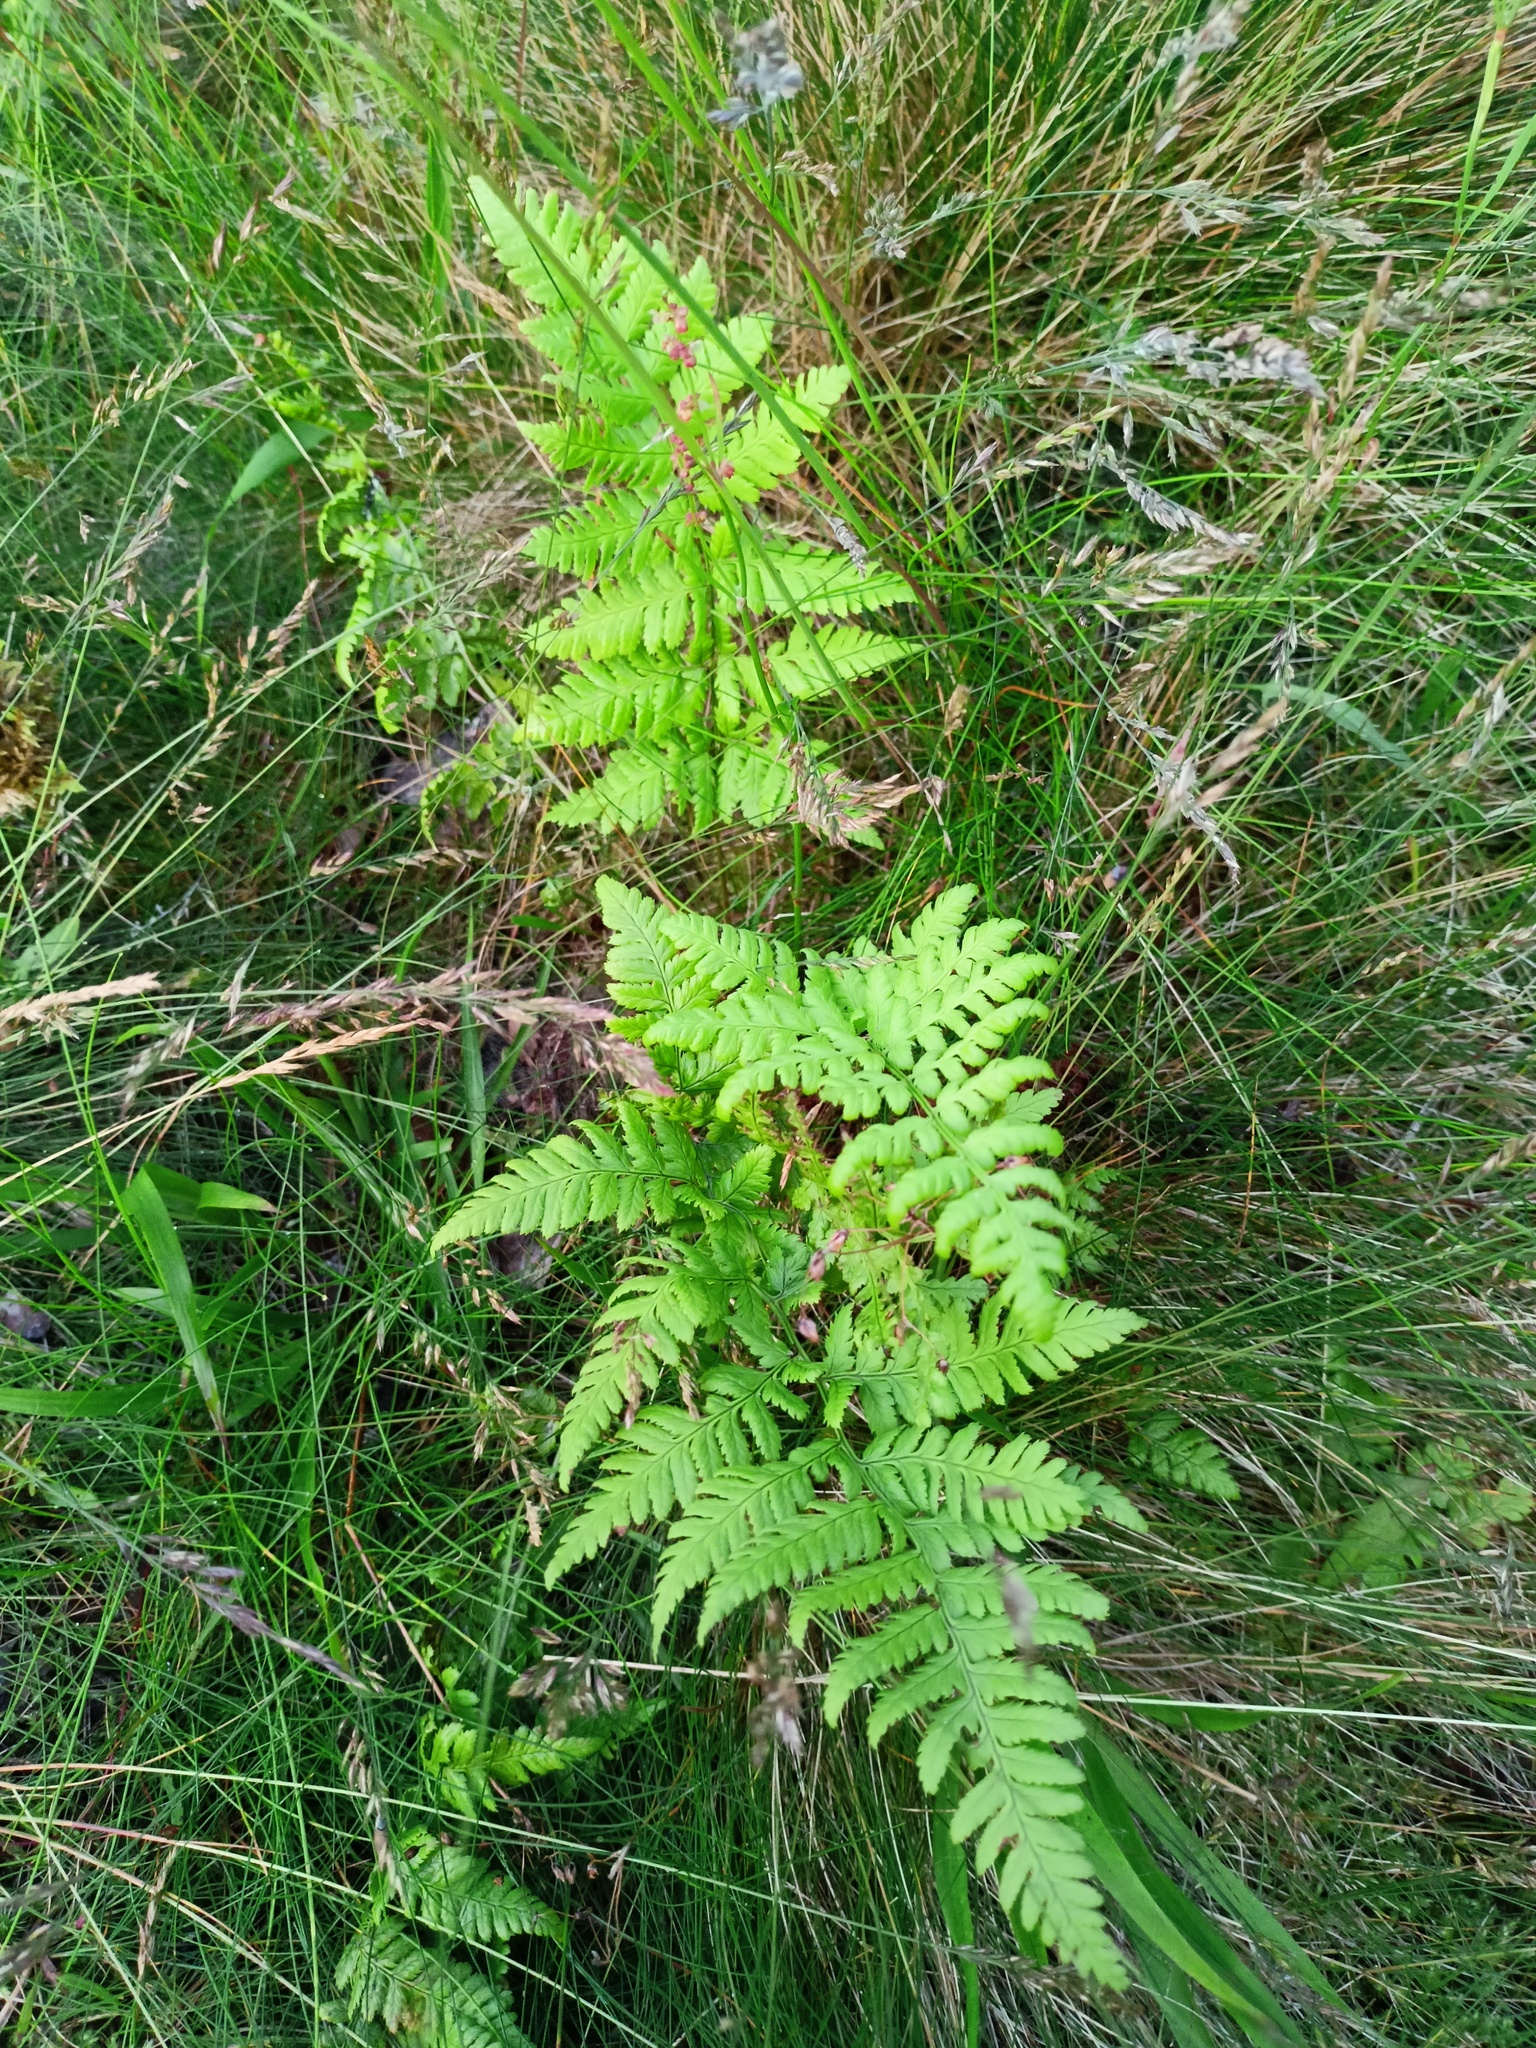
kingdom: Plantae
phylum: Tracheophyta
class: Polypodiopsida
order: Polypodiales
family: Dryopteridaceae
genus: Dryopteris
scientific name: Dryopteris carthusiana
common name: Narrow buckler-fern
